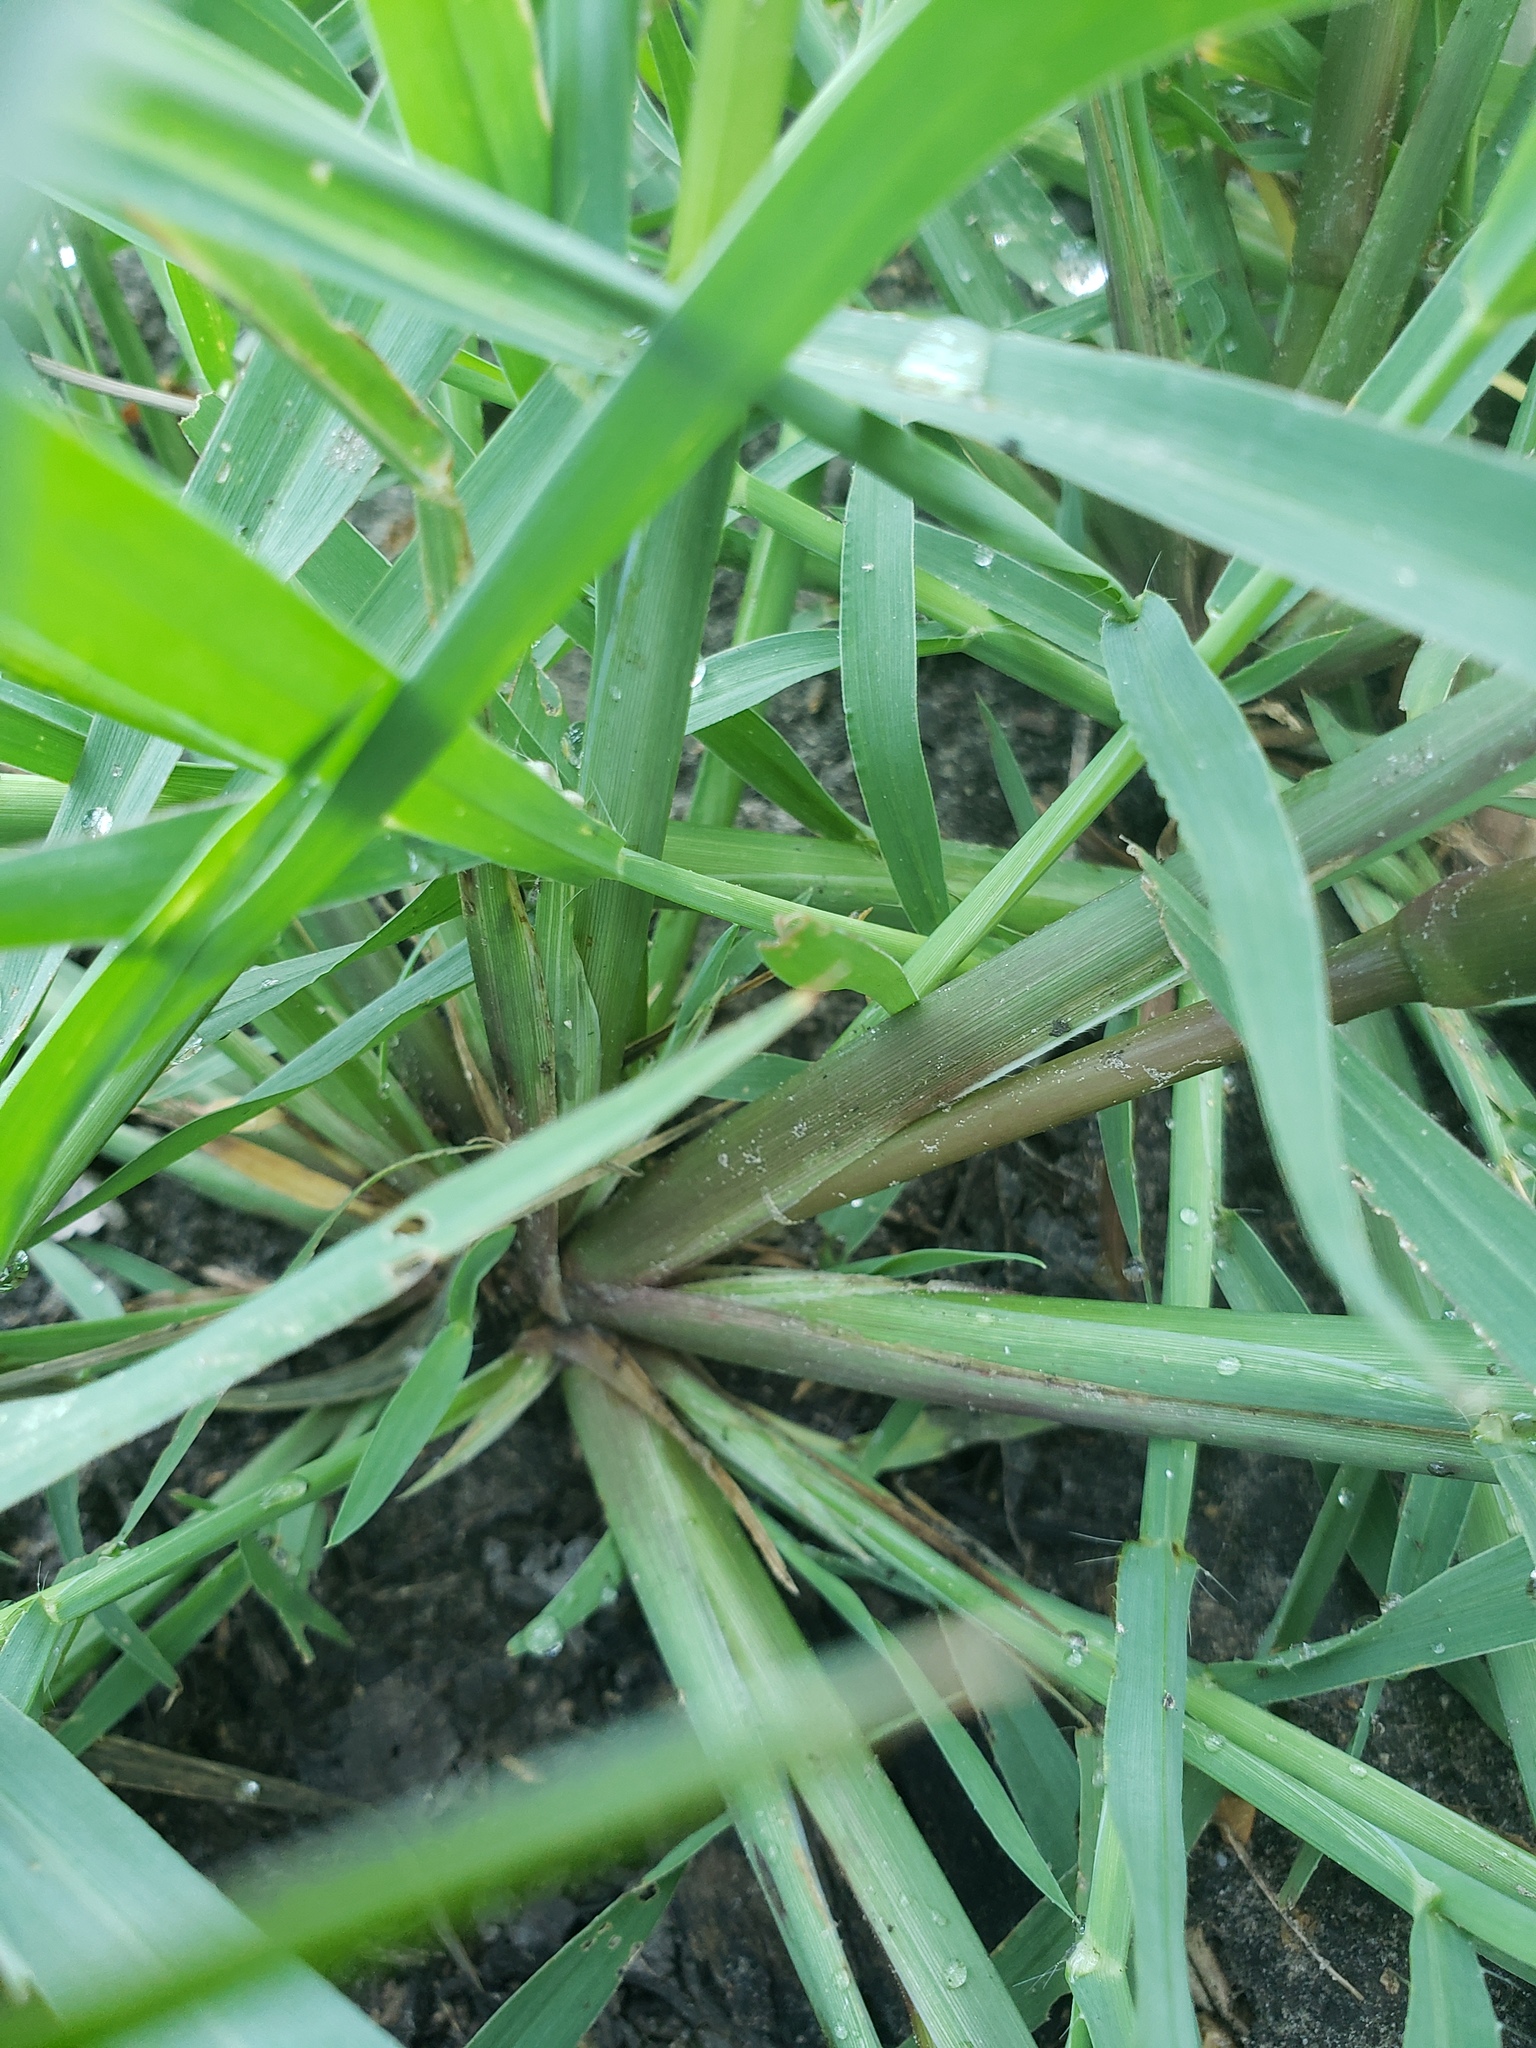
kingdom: Plantae
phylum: Tracheophyta
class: Liliopsida
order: Poales
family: Poaceae
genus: Echinochloa
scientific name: Echinochloa crus-galli
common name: Cockspur
